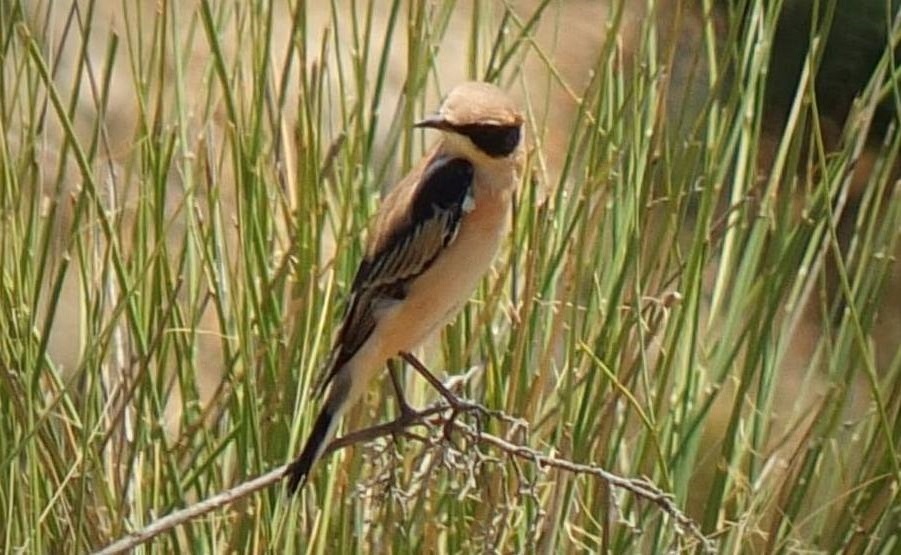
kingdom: Animalia
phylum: Chordata
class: Aves
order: Passeriformes
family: Muscicapidae
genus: Oenanthe
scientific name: Oenanthe hispanica
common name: Black-eared wheatear
